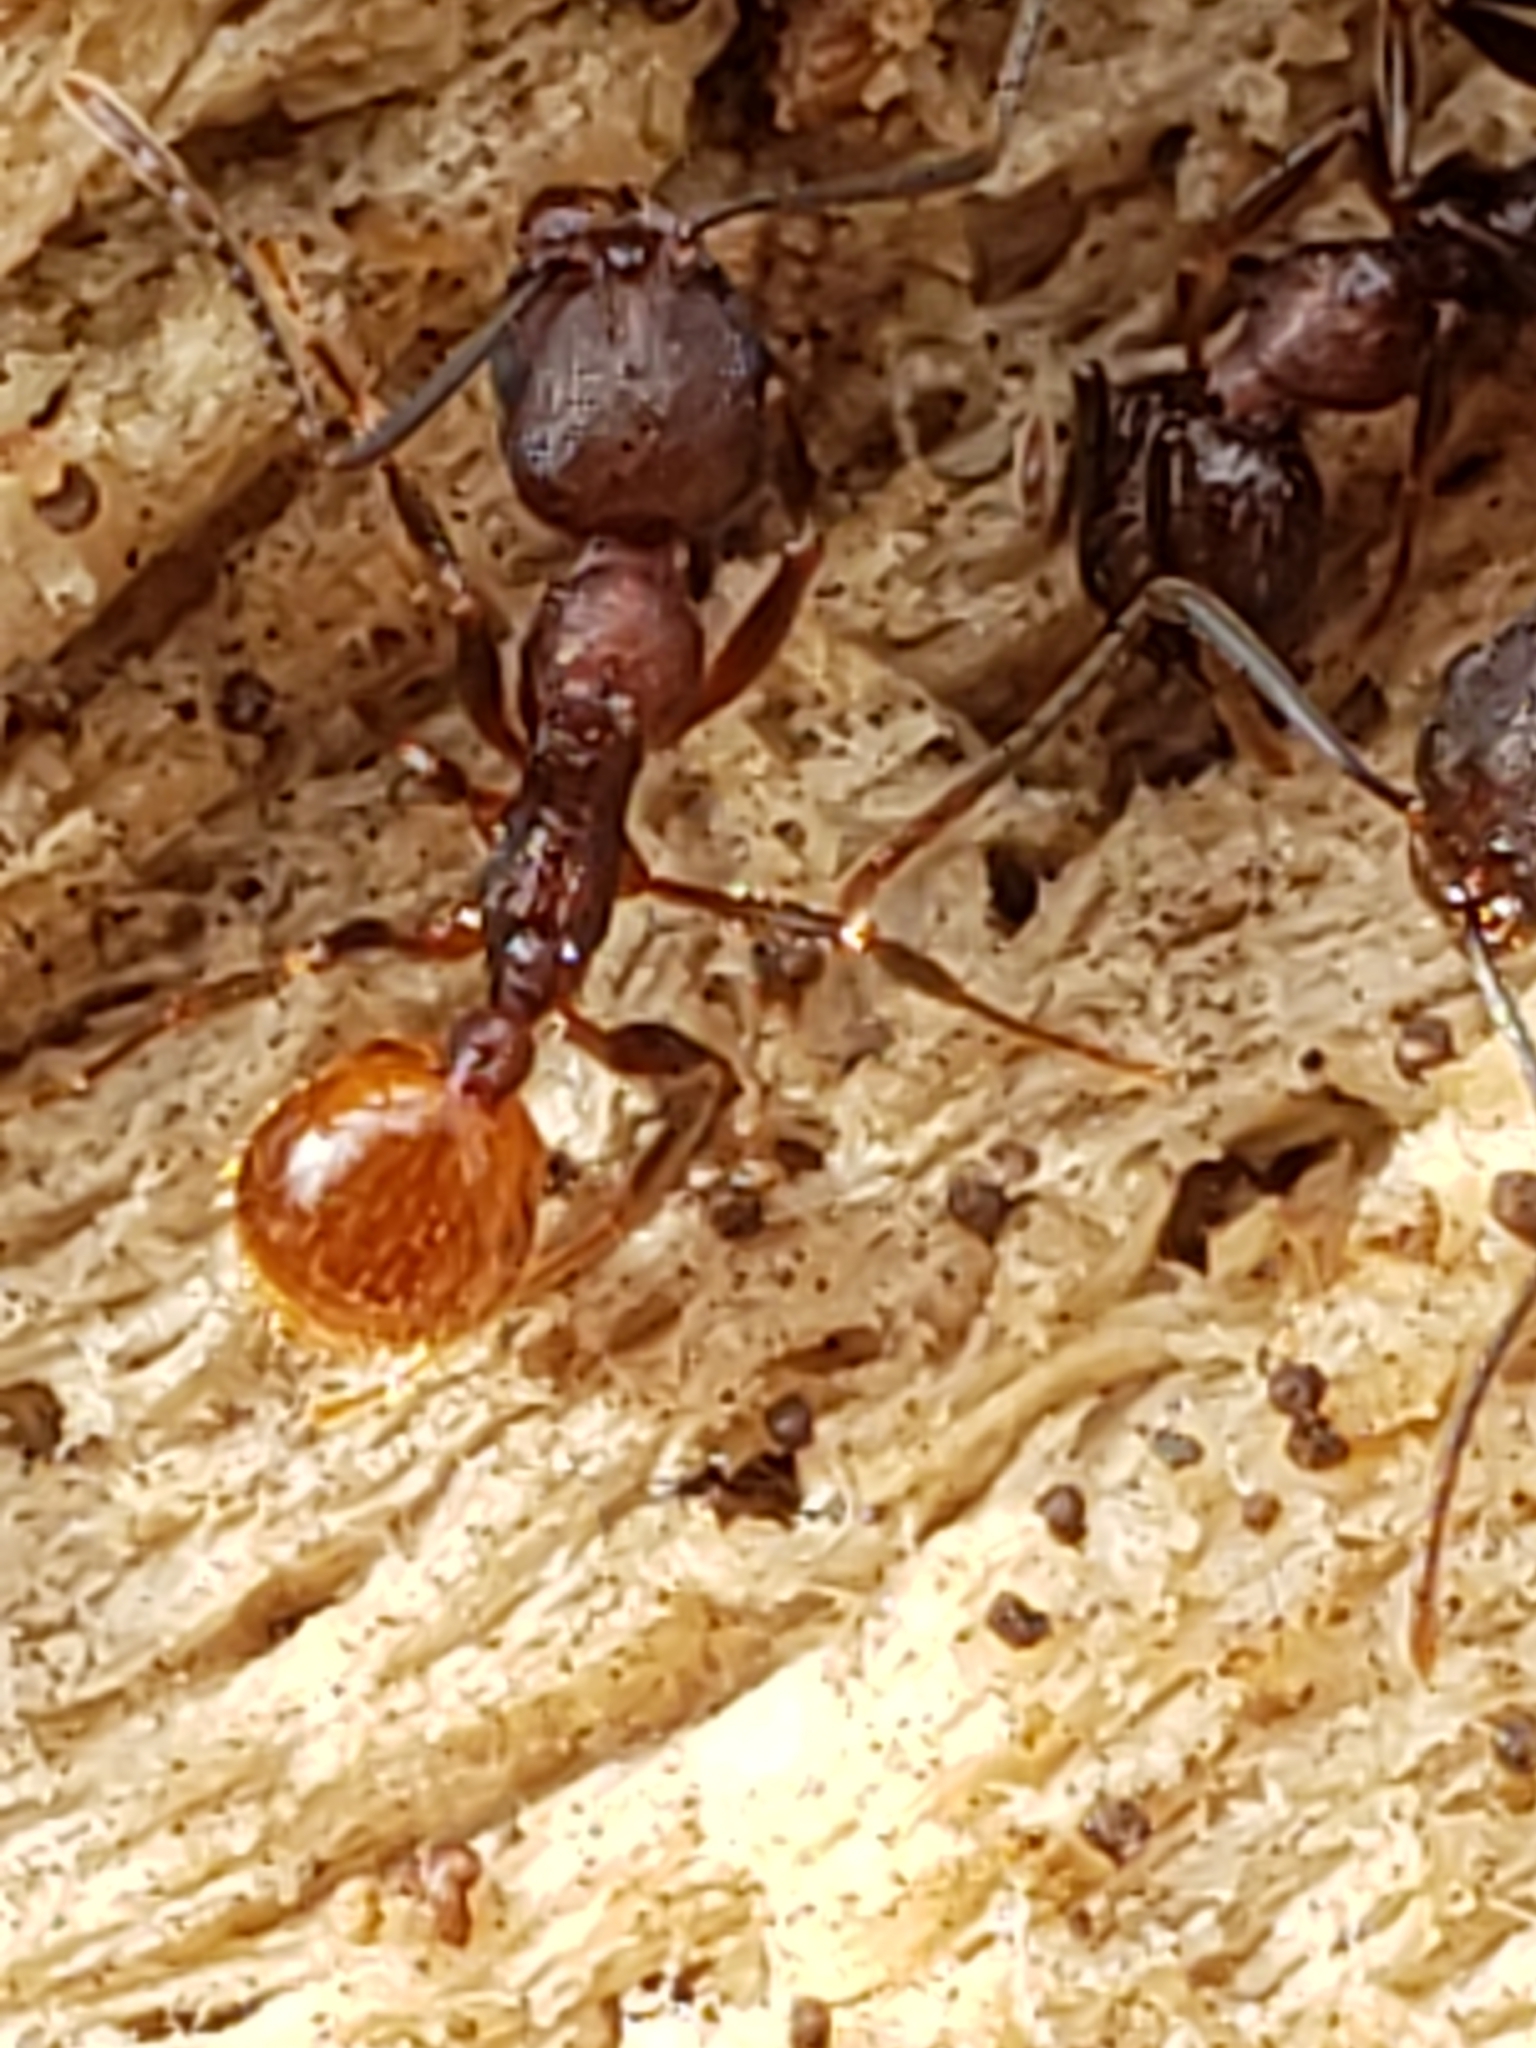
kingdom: Animalia
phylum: Arthropoda
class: Insecta
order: Hymenoptera
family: Formicidae
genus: Aphaenogaster
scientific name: Aphaenogaster fulva
